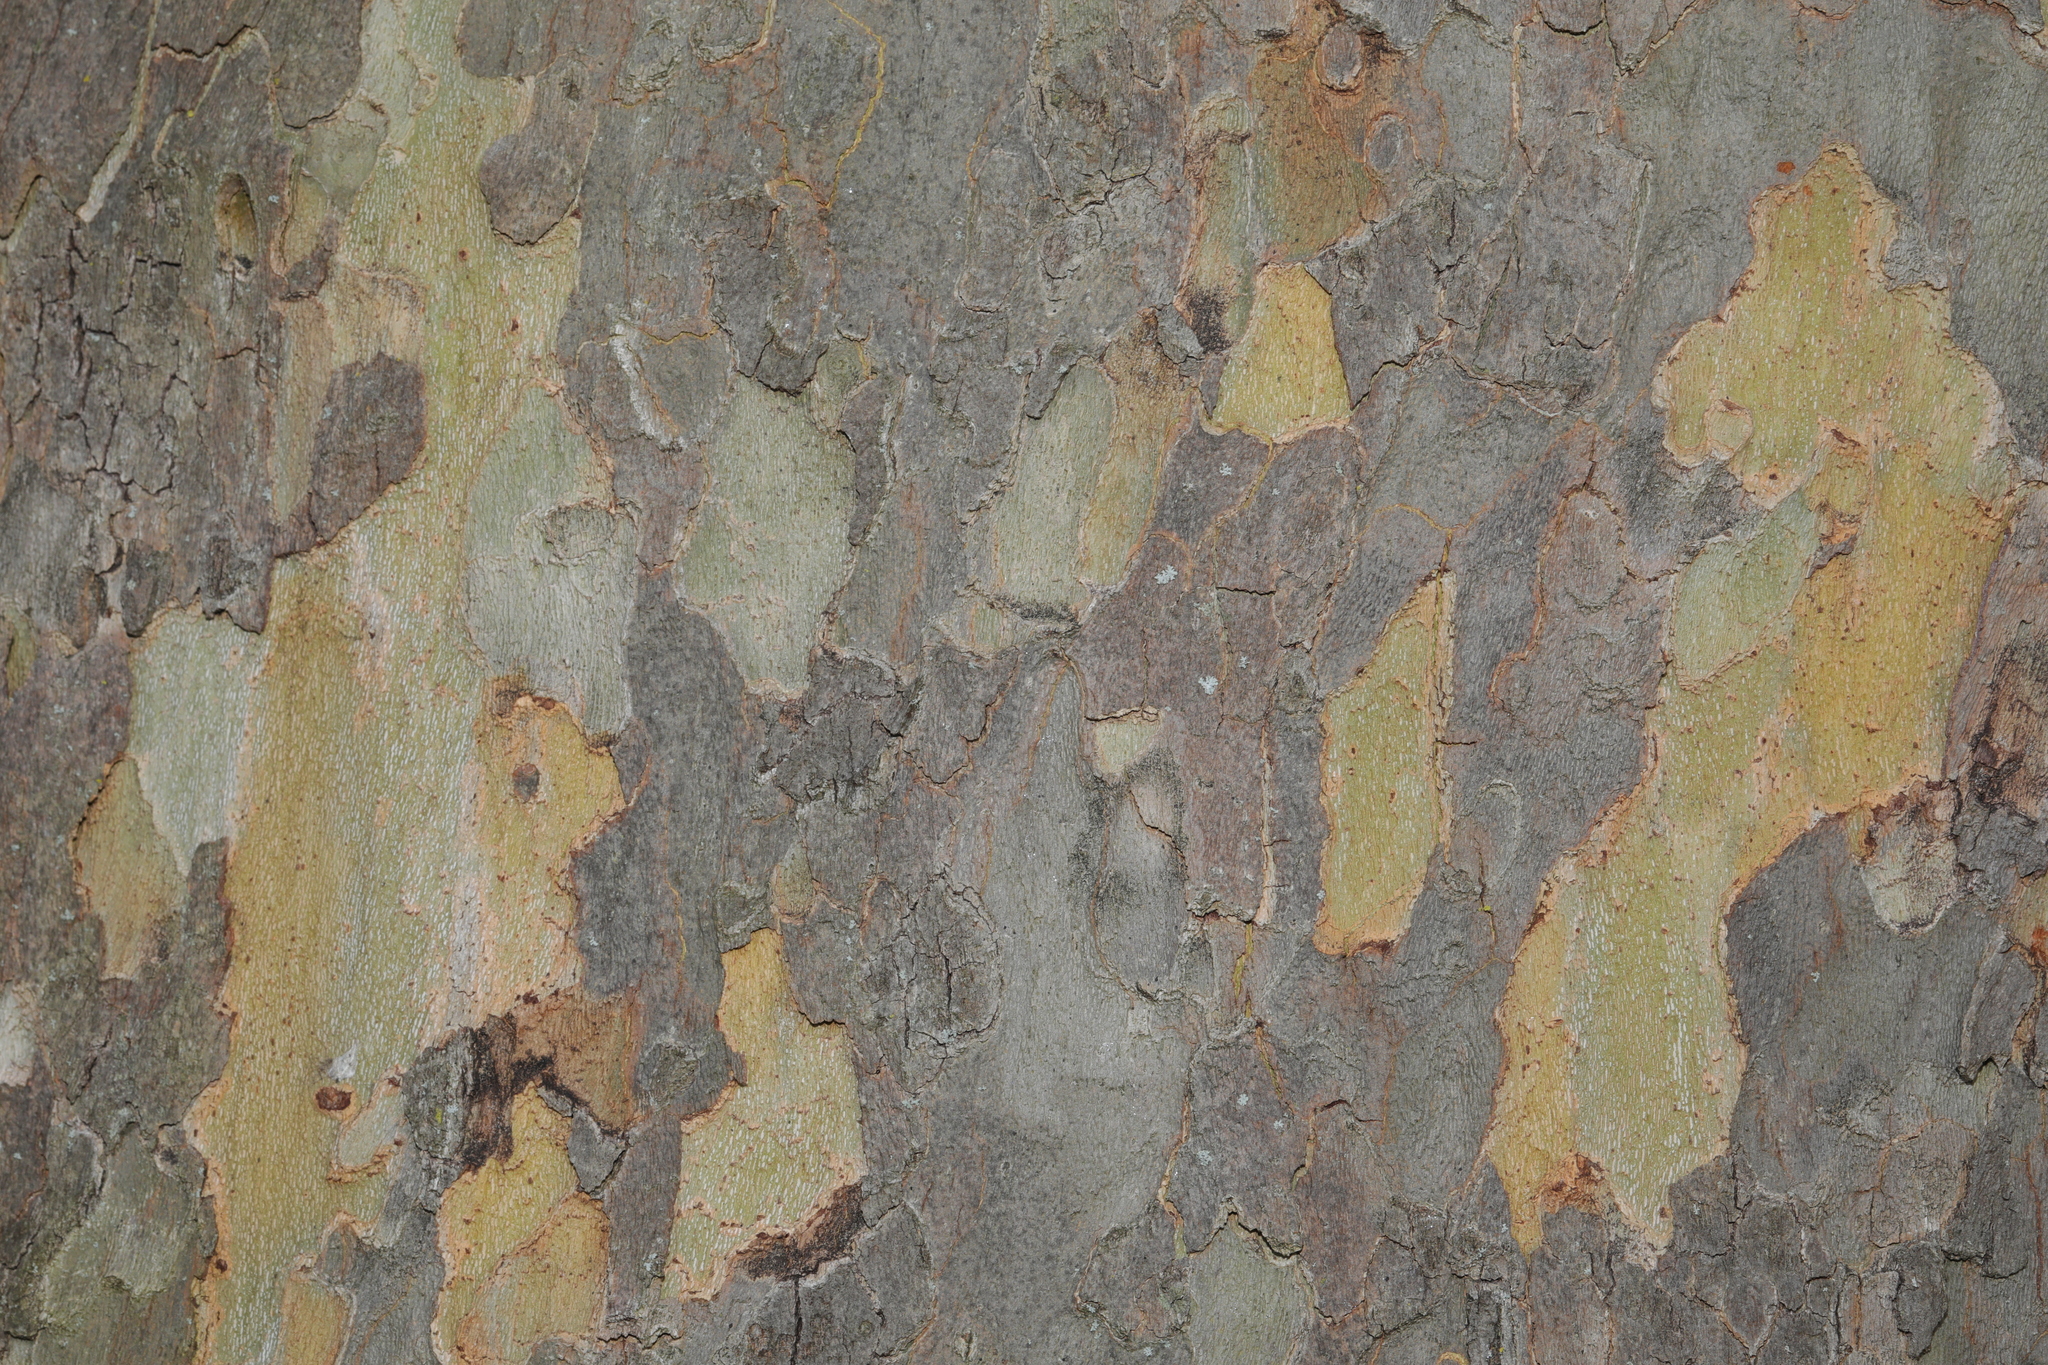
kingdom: Plantae
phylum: Tracheophyta
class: Magnoliopsida
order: Proteales
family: Platanaceae
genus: Platanus
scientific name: Platanus hispanica
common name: London plane
